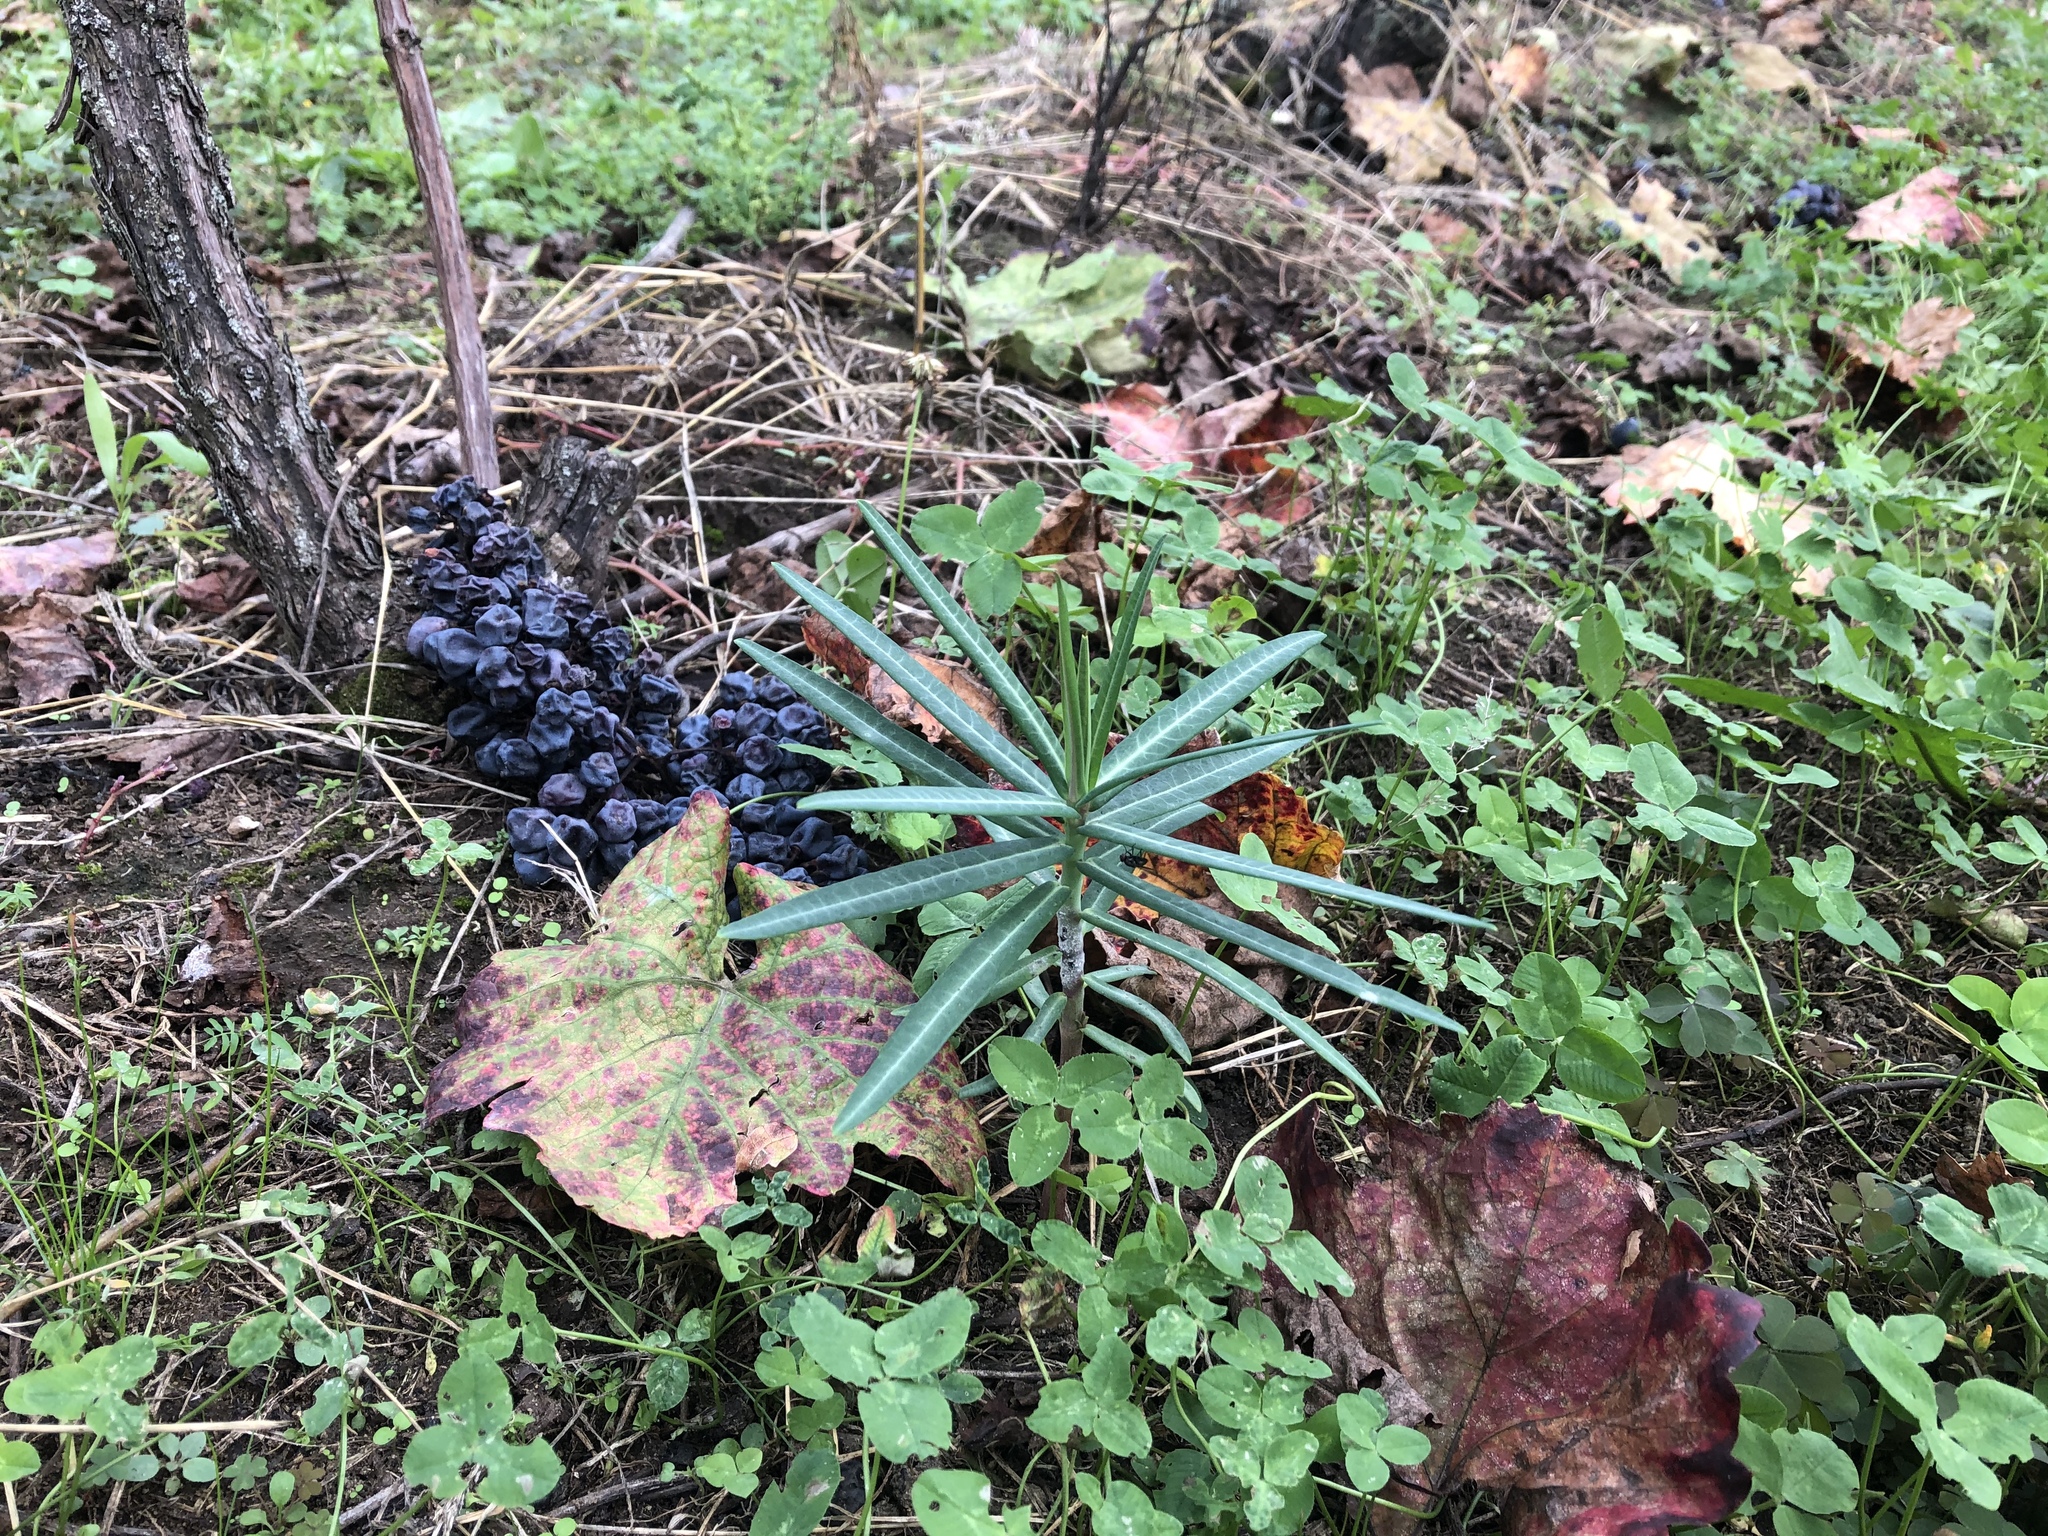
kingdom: Plantae
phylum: Tracheophyta
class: Magnoliopsida
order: Malpighiales
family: Euphorbiaceae
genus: Euphorbia
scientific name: Euphorbia lathyris
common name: Caper spurge
